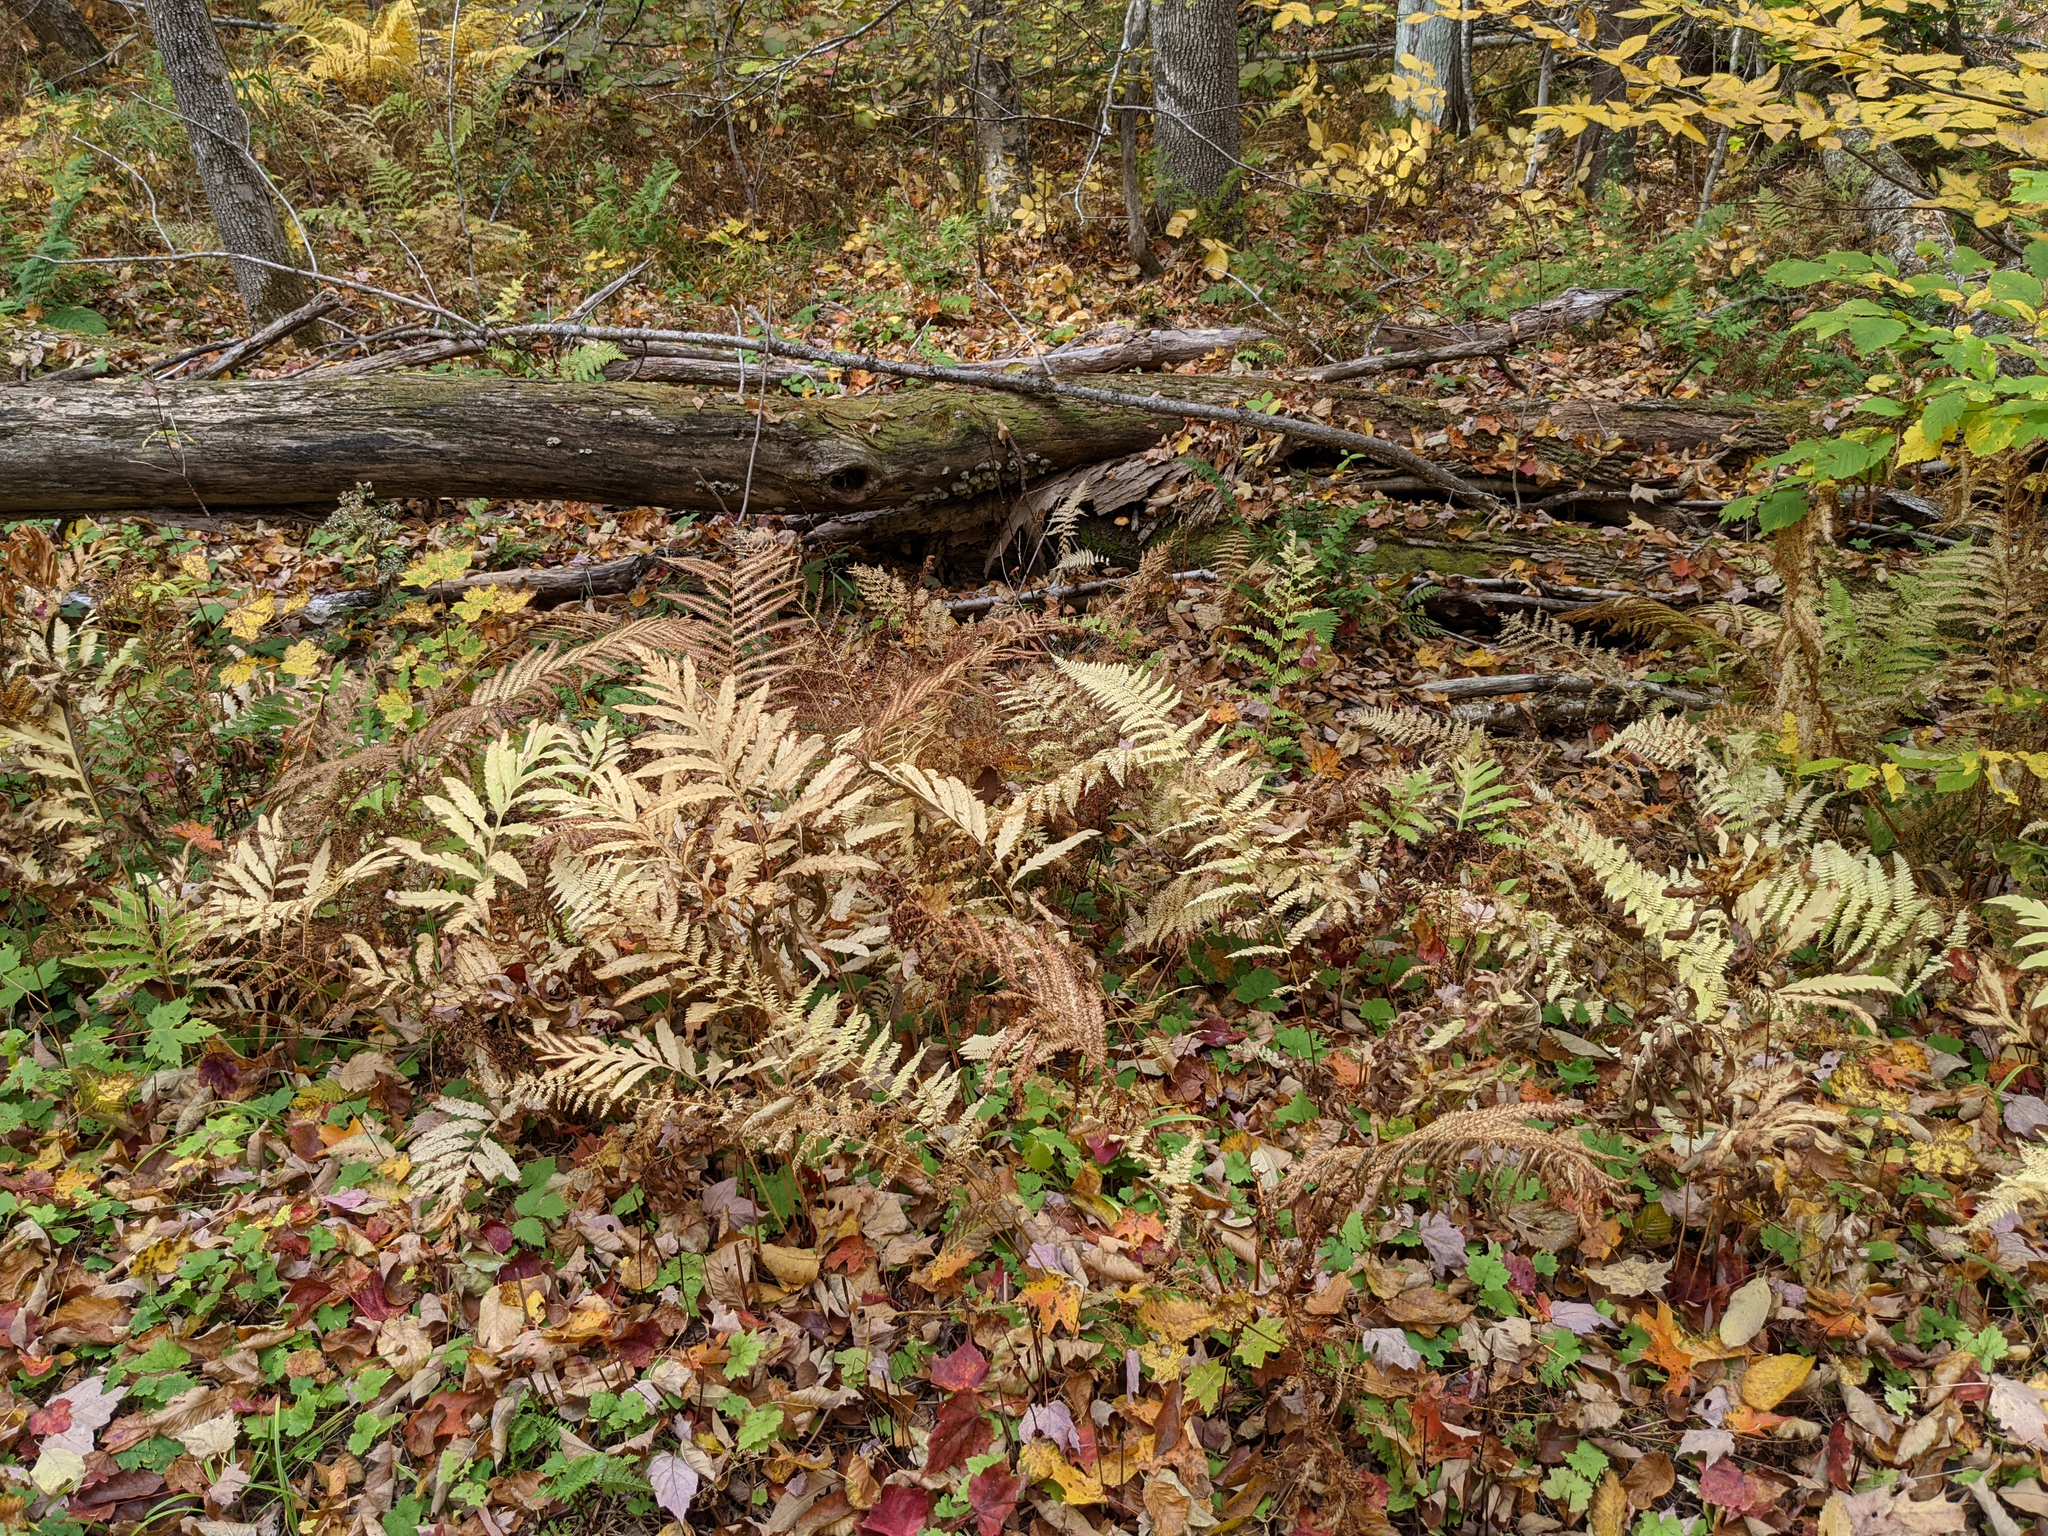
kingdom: Plantae
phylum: Tracheophyta
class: Polypodiopsida
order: Polypodiales
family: Onocleaceae
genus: Matteuccia
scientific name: Matteuccia struthiopteris
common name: Ostrich fern
